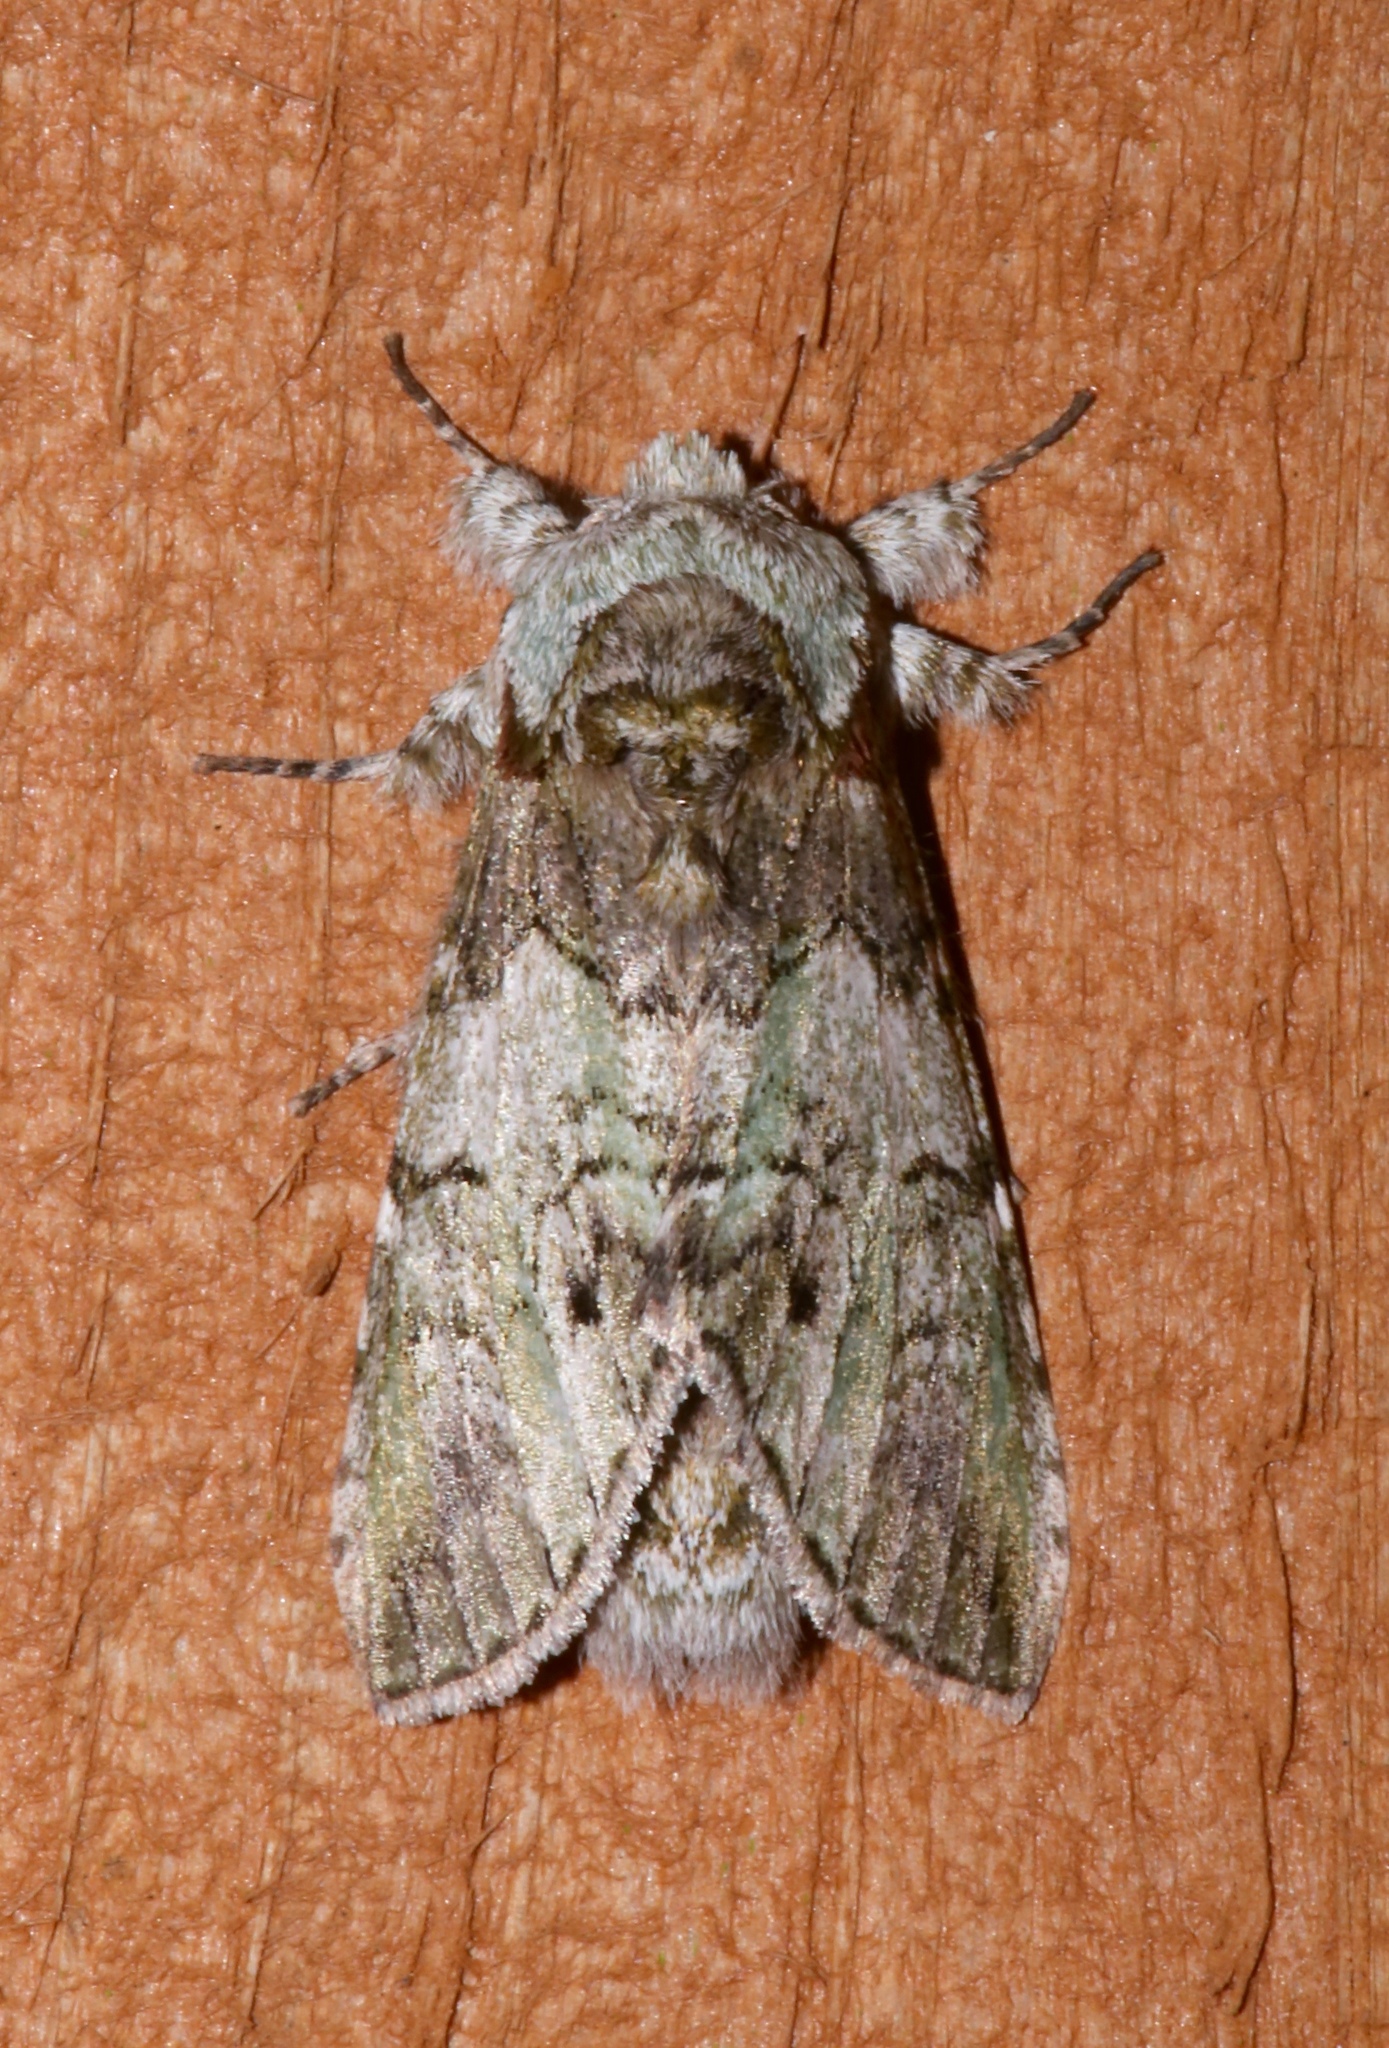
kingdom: Animalia
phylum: Arthropoda
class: Insecta
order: Lepidoptera
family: Notodontidae
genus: Macrurocampa
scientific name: Macrurocampa marthesia
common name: Mottled prominent
